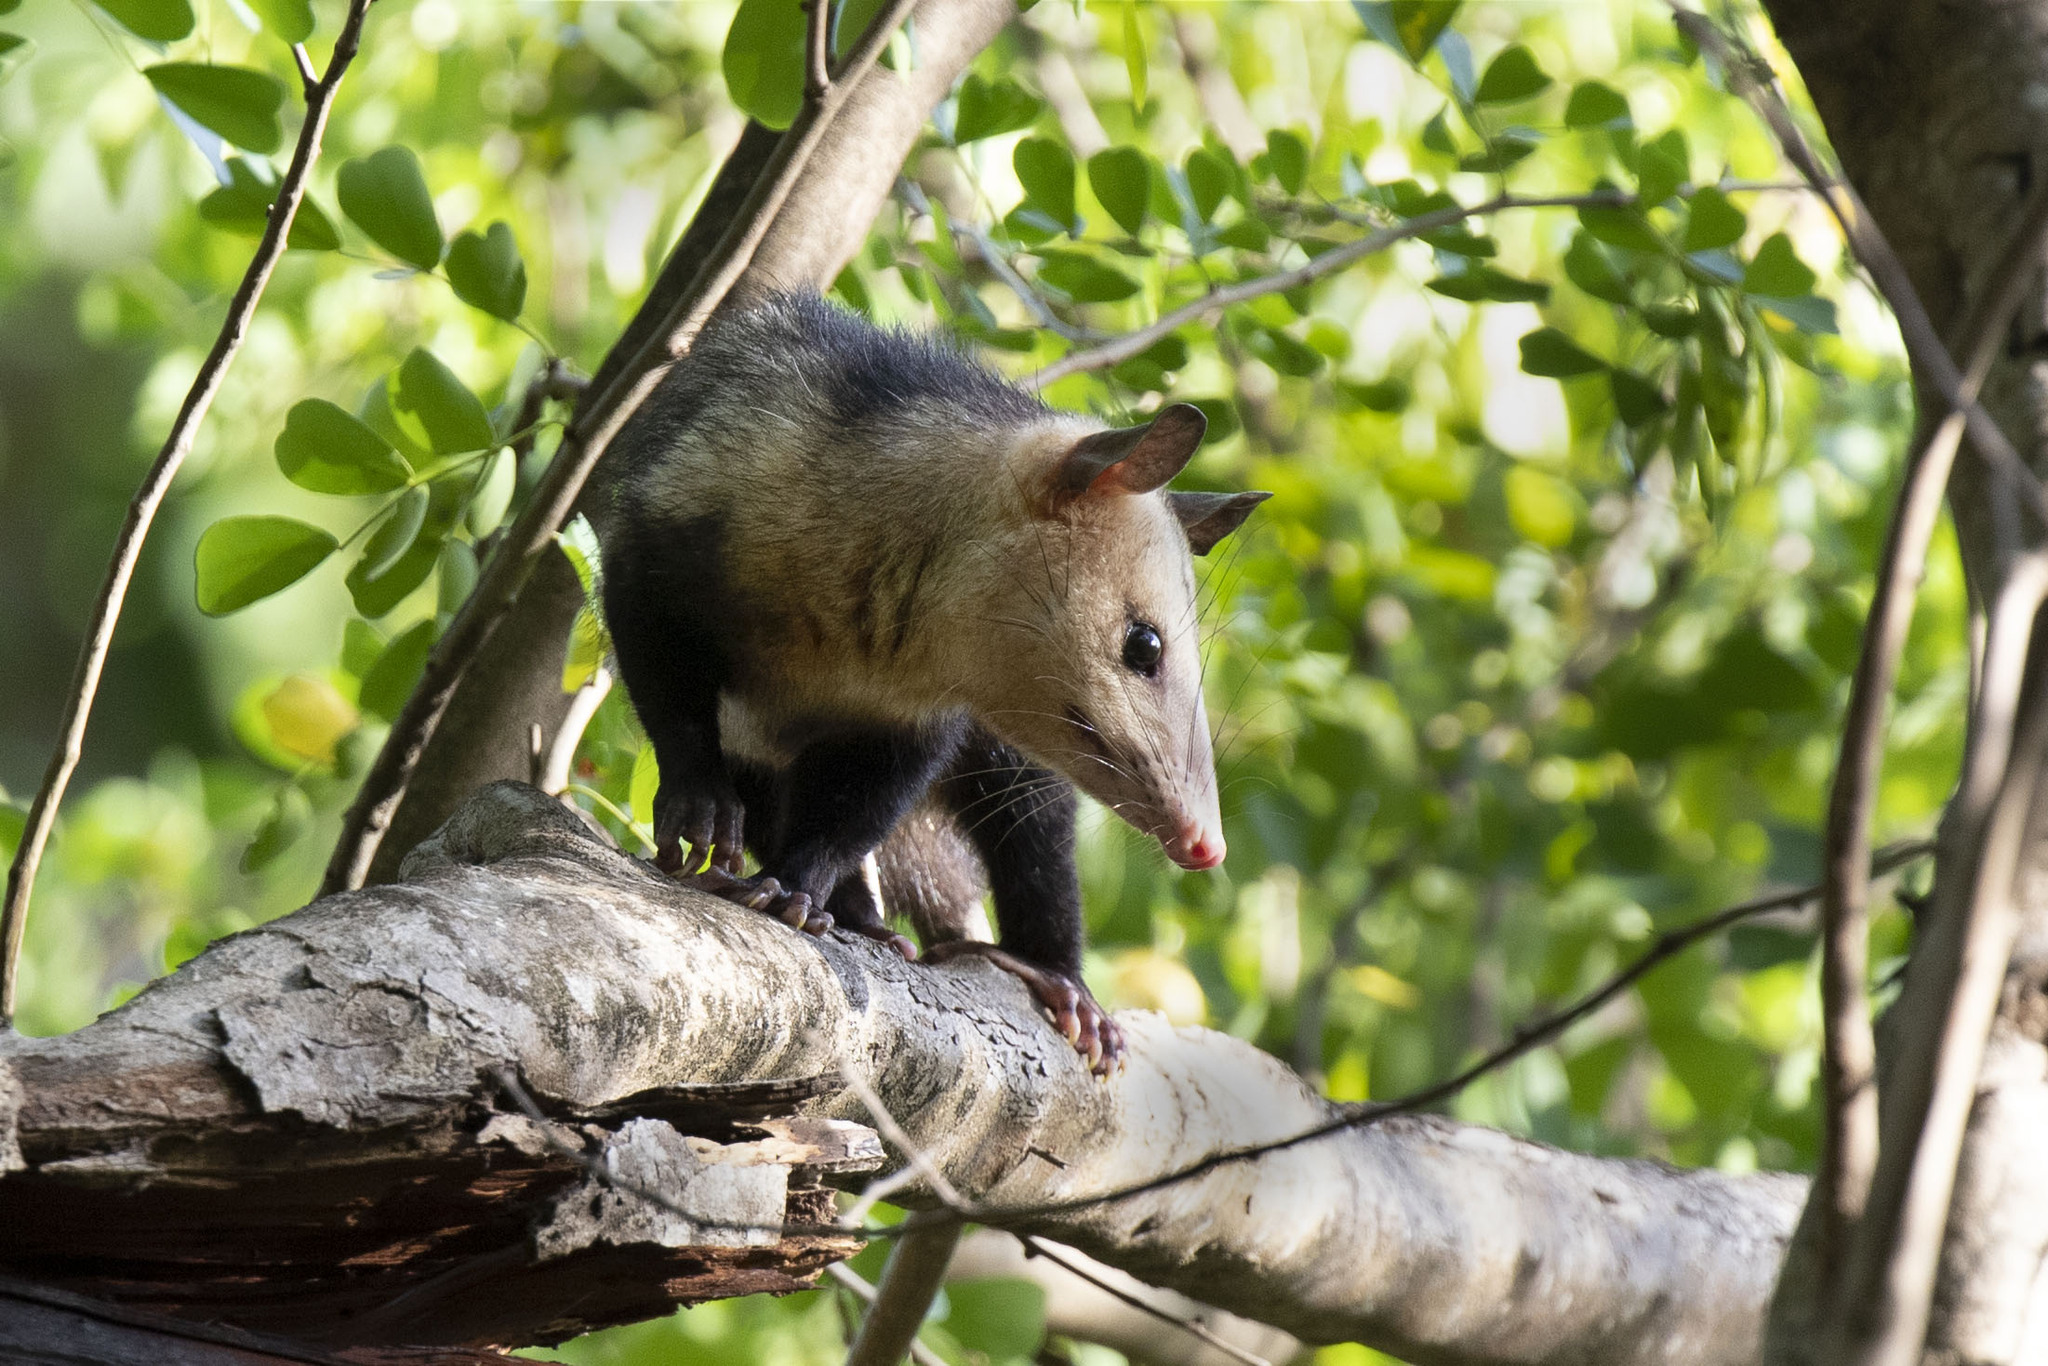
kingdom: Animalia
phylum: Chordata
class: Mammalia
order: Didelphimorphia
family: Didelphidae
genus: Didelphis
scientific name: Didelphis marsupialis
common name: Common opossum
